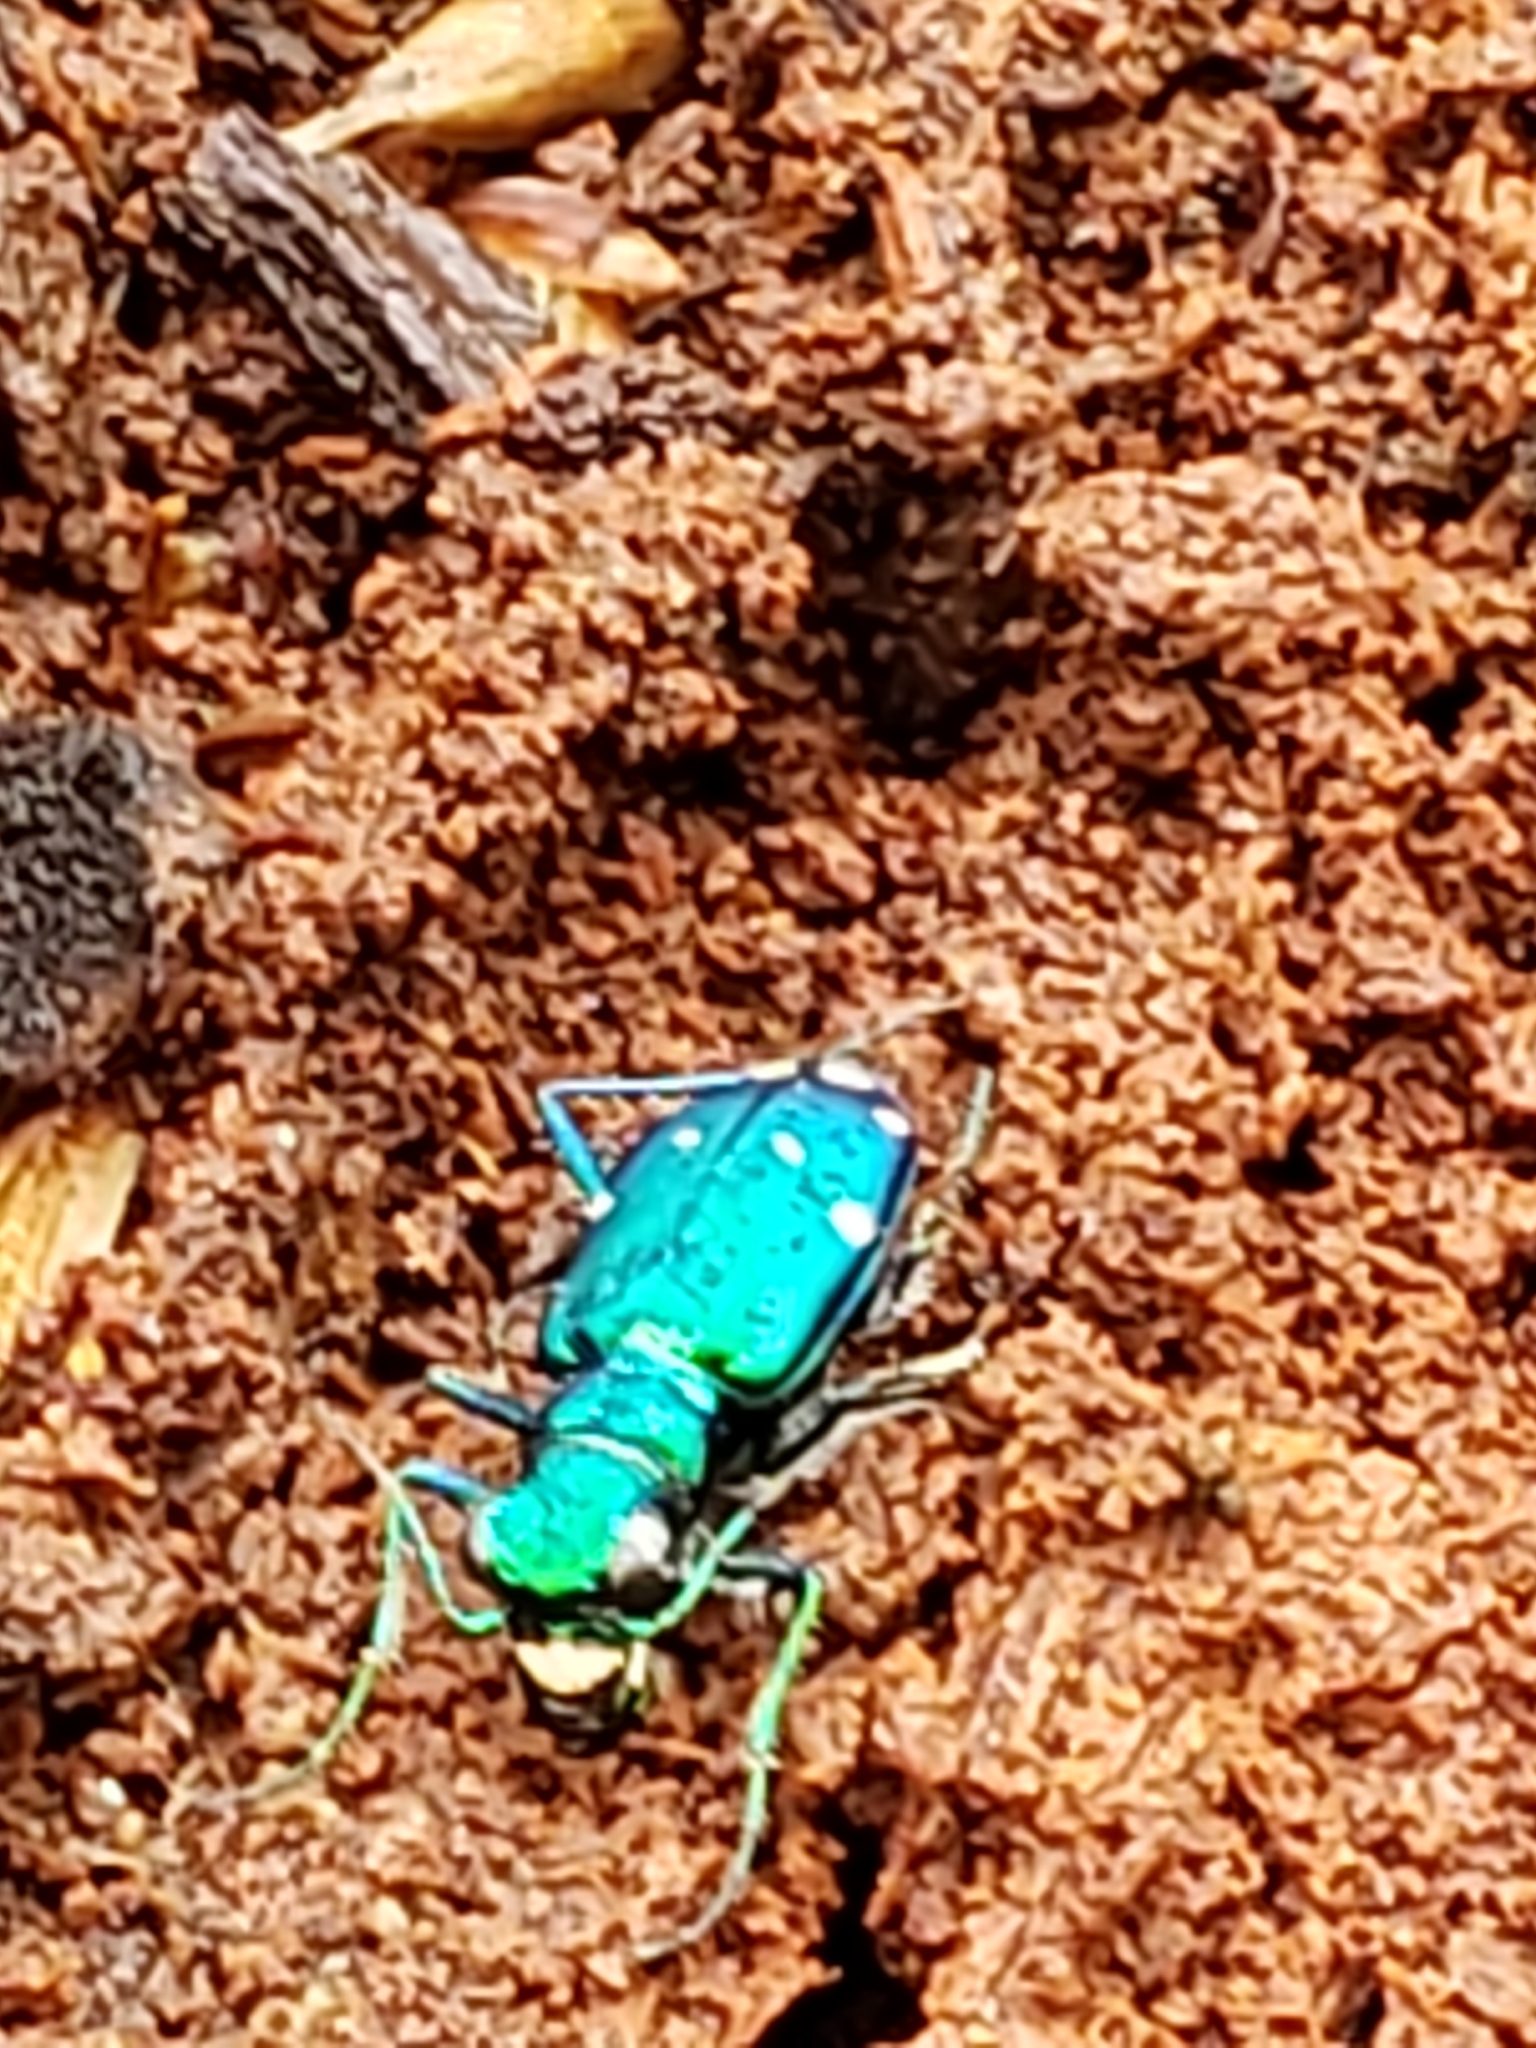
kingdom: Animalia
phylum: Arthropoda
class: Insecta
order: Coleoptera
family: Carabidae
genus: Cicindela
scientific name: Cicindela sexguttata
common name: Six-spotted tiger beetle
